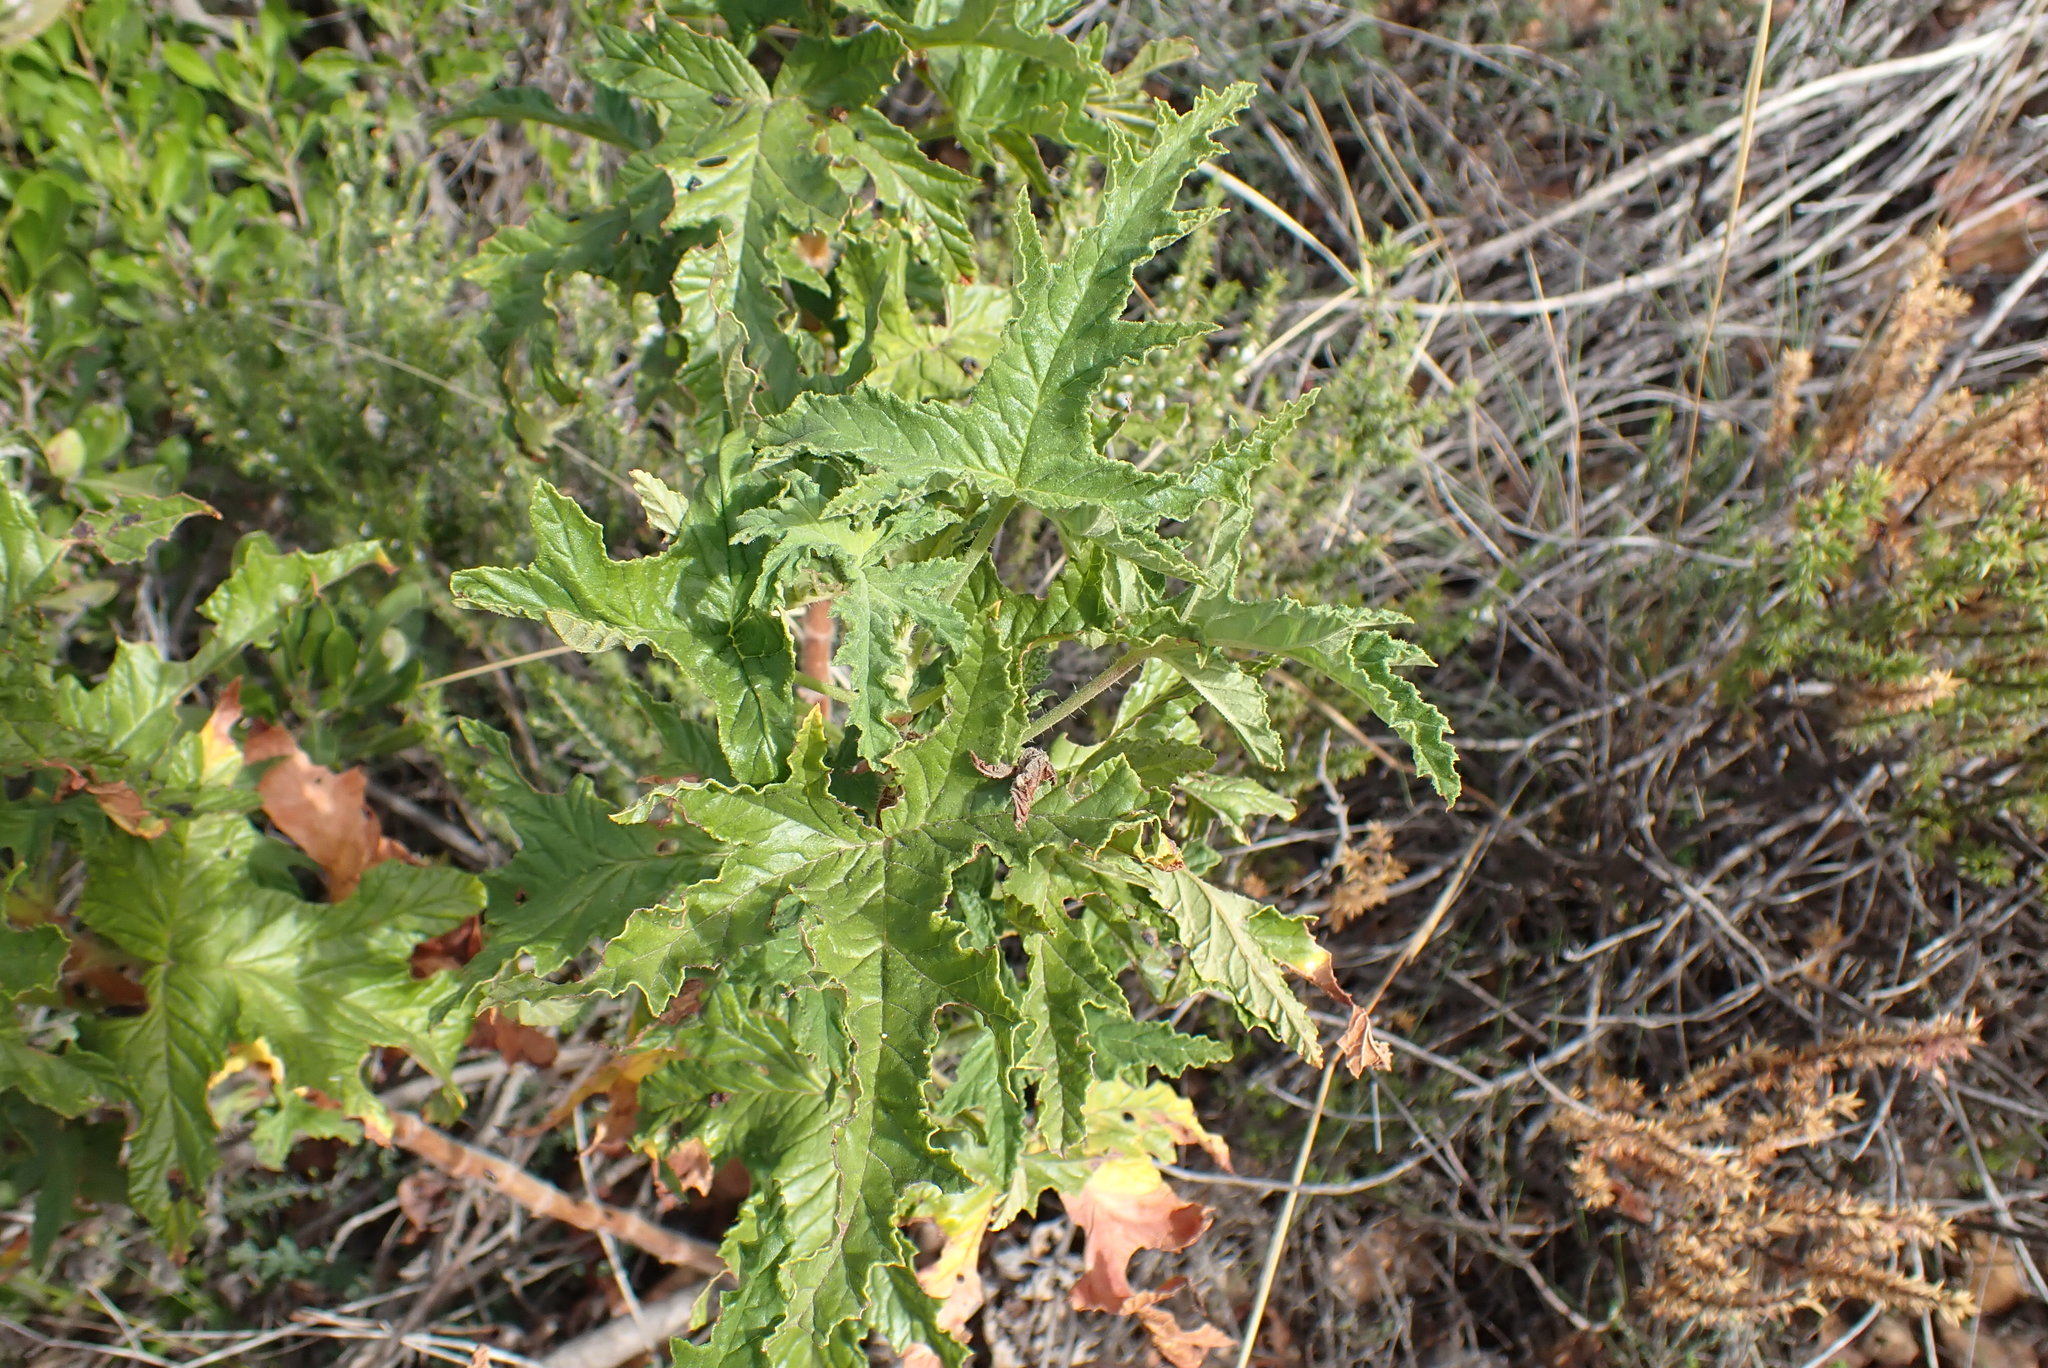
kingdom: Plantae
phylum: Tracheophyta
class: Magnoliopsida
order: Geraniales
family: Geraniaceae
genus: Pelargonium
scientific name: Pelargonium glutinosum
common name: Pheasant-foot geranium
